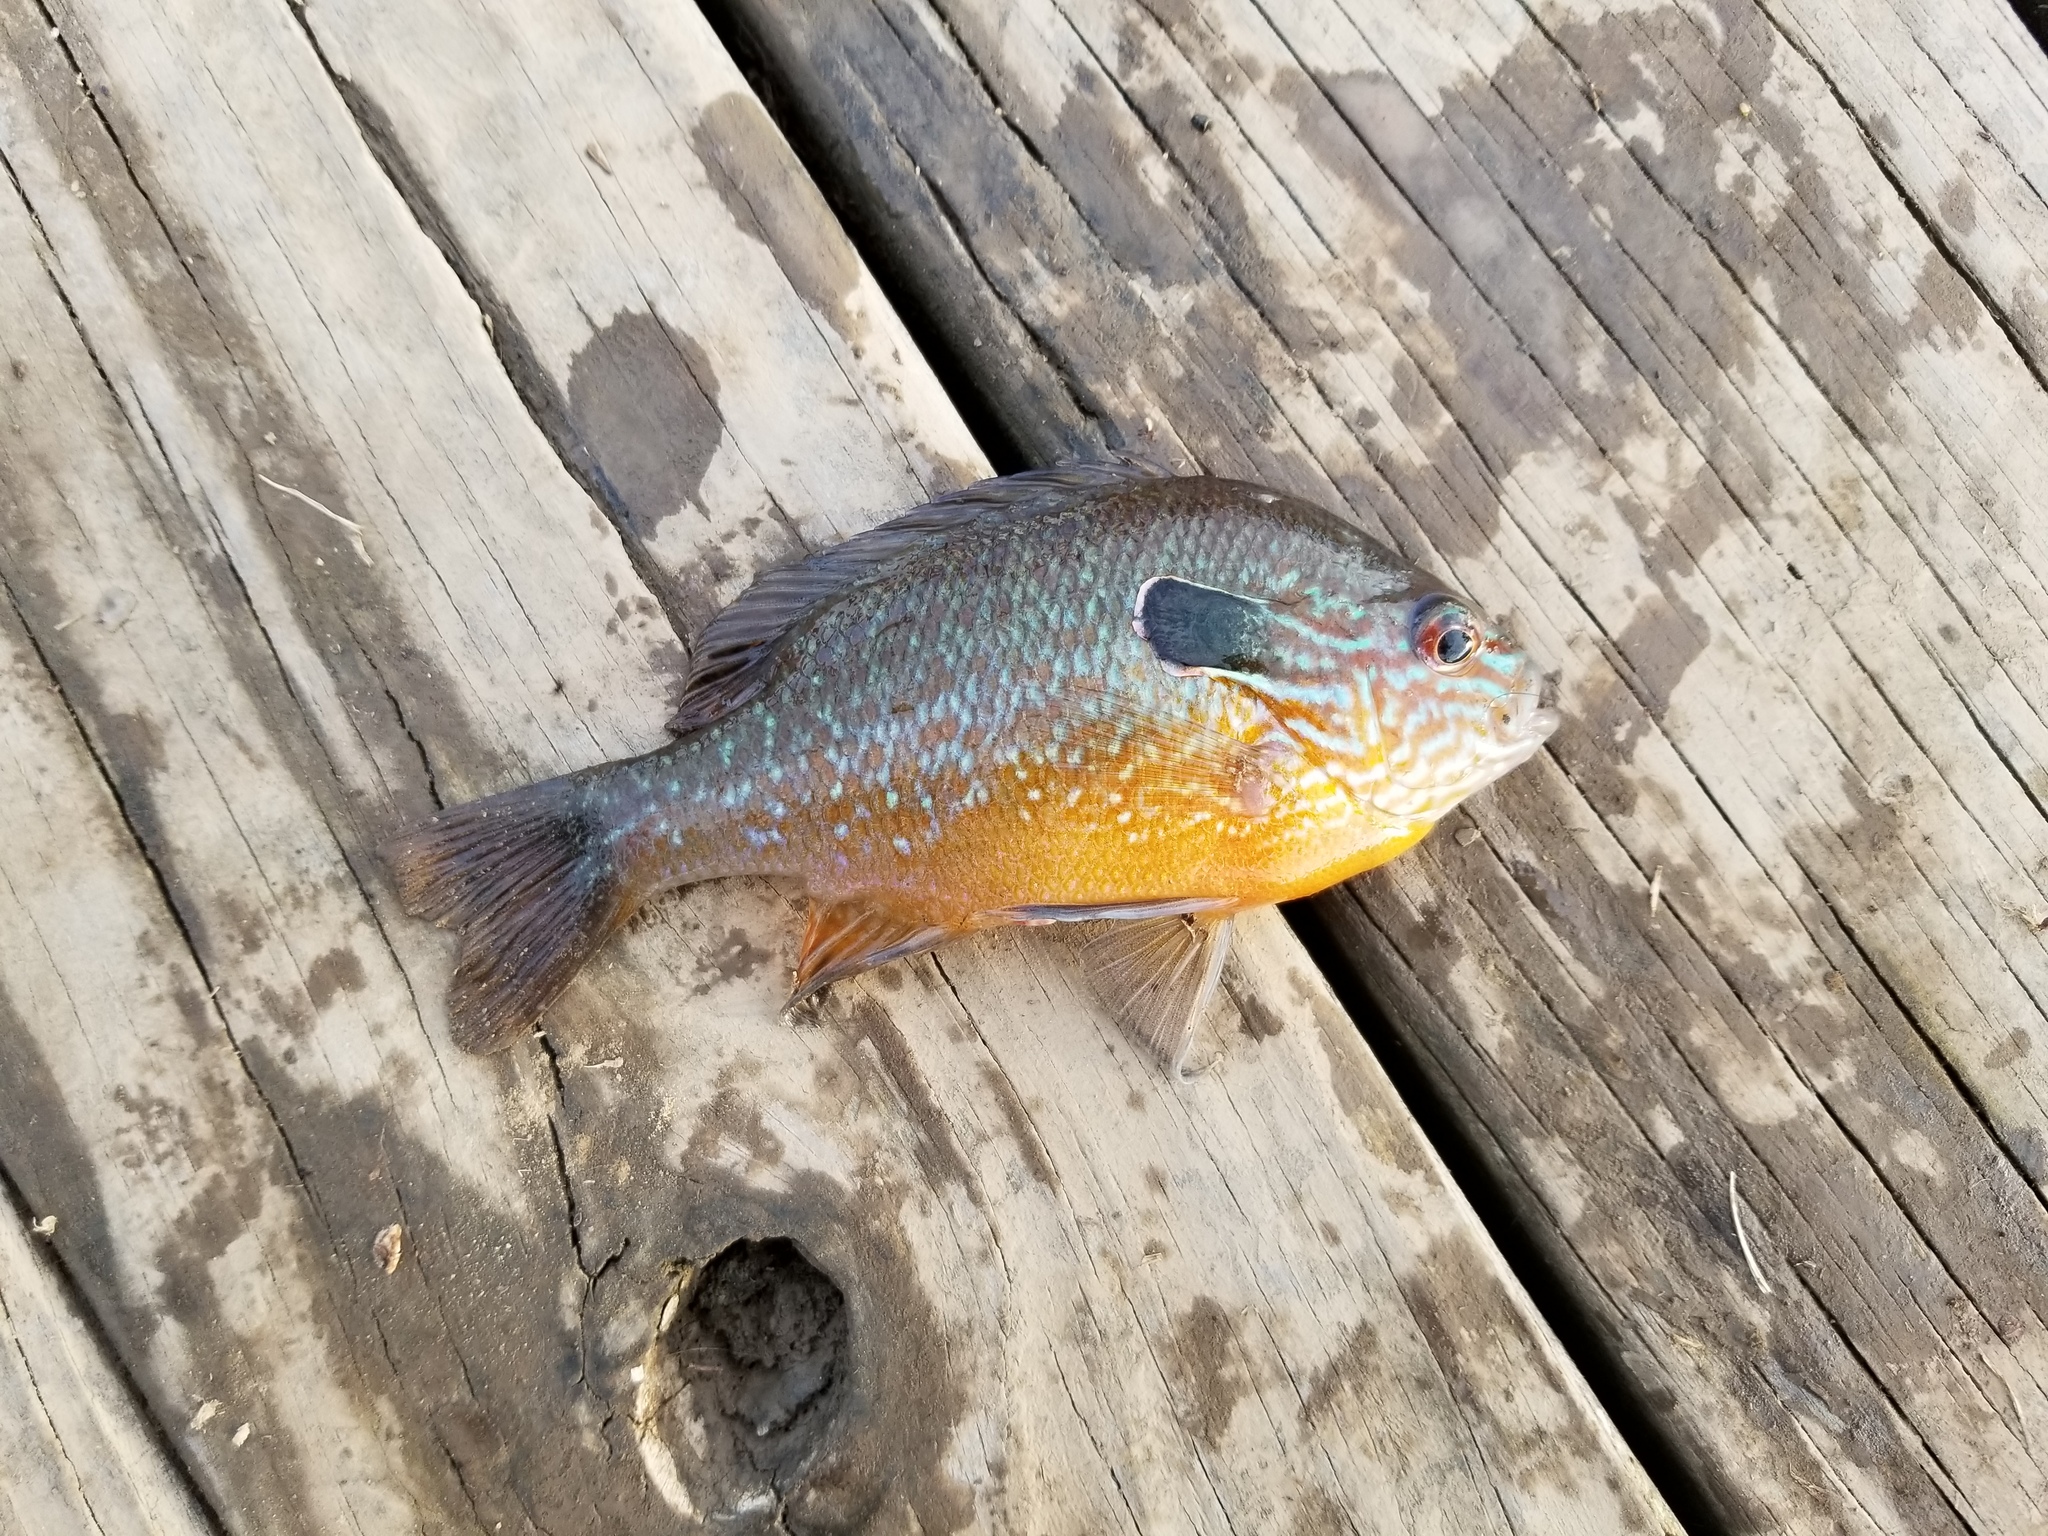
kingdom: Animalia
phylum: Chordata
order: Perciformes
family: Centrarchidae
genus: Lepomis
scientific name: Lepomis megalotis
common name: Longear sunfish
